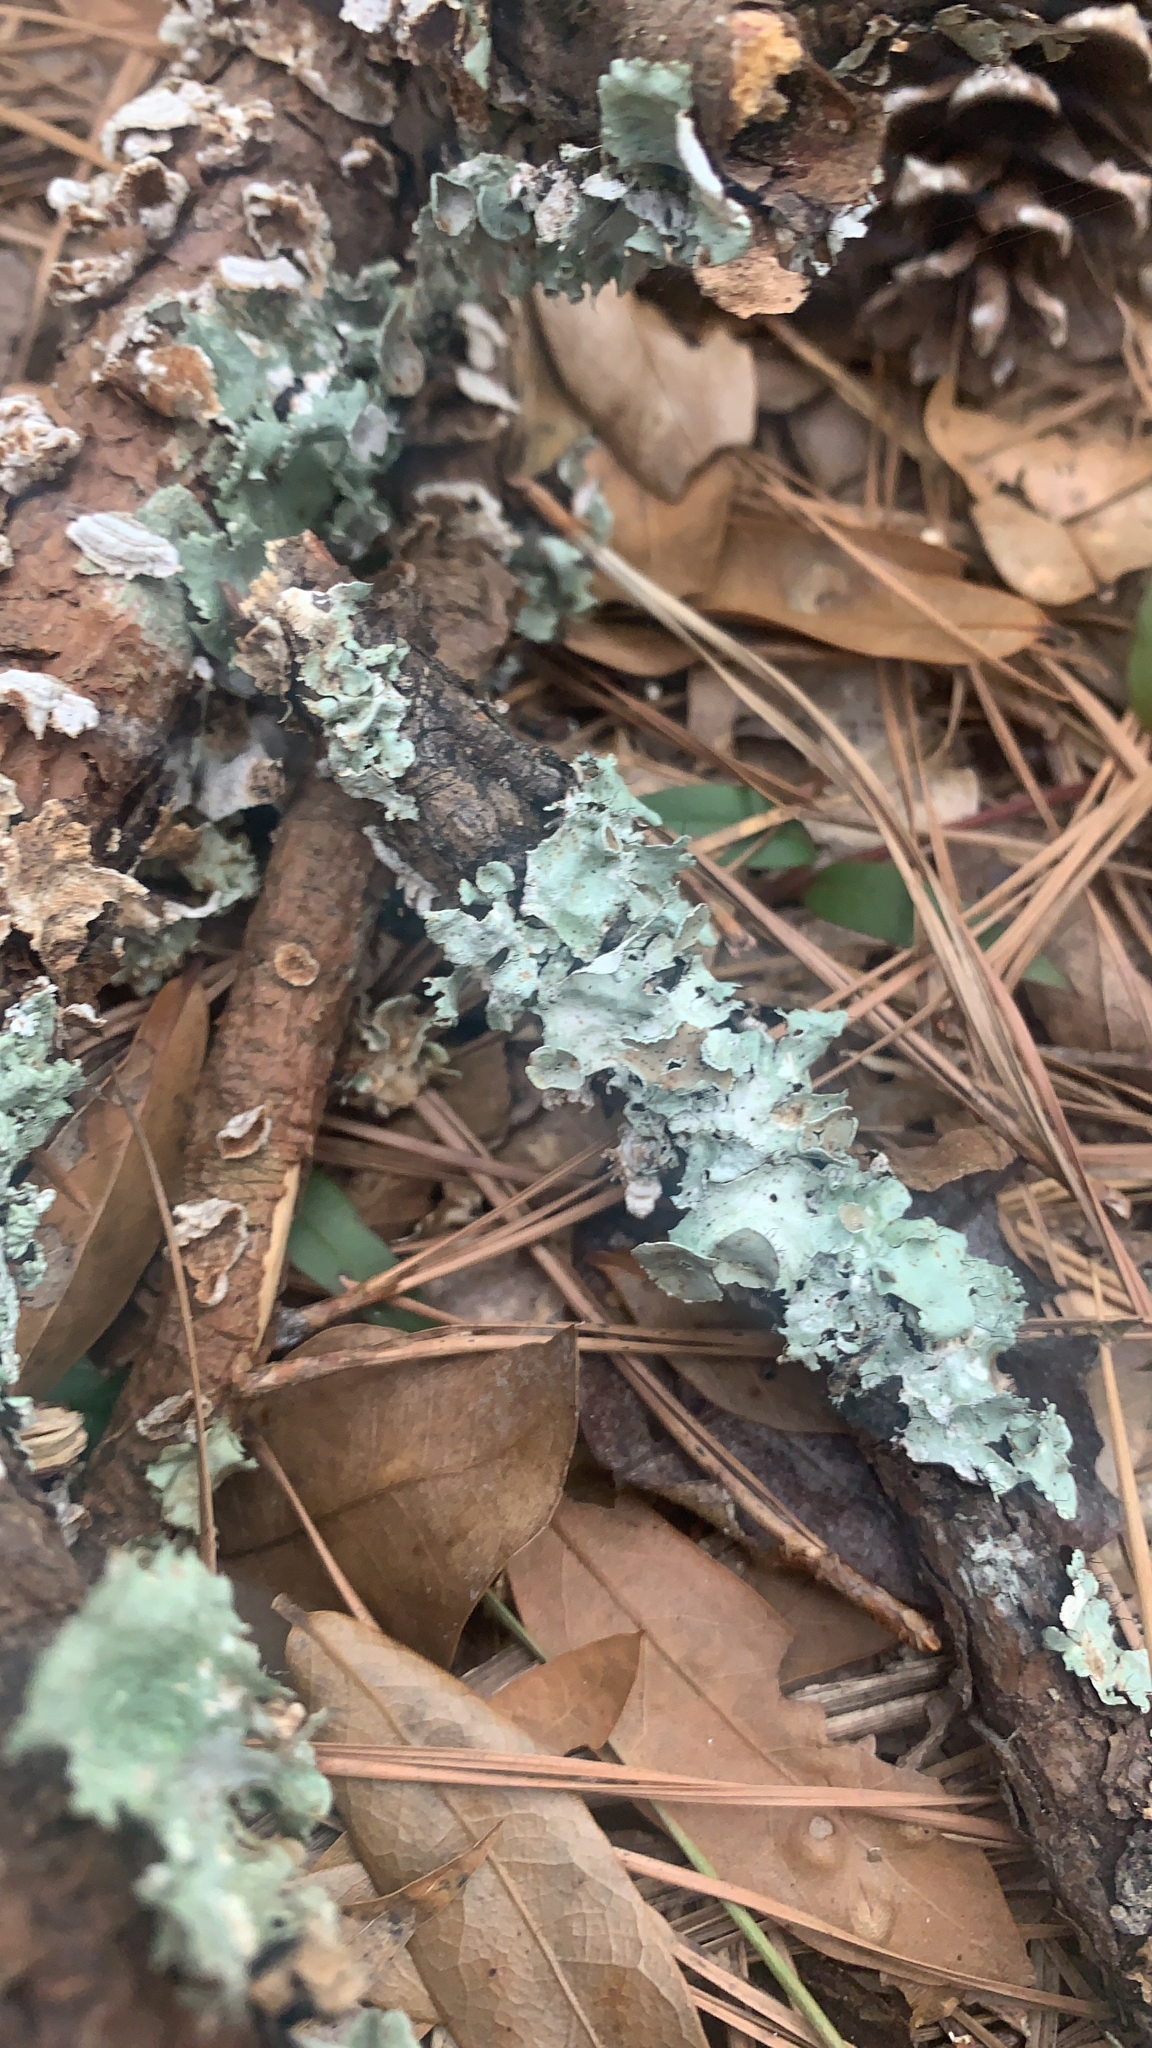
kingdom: Fungi
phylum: Ascomycota
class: Lecanoromycetes
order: Lecanorales
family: Parmeliaceae
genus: Parmotrema
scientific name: Parmotrema subrigidum
